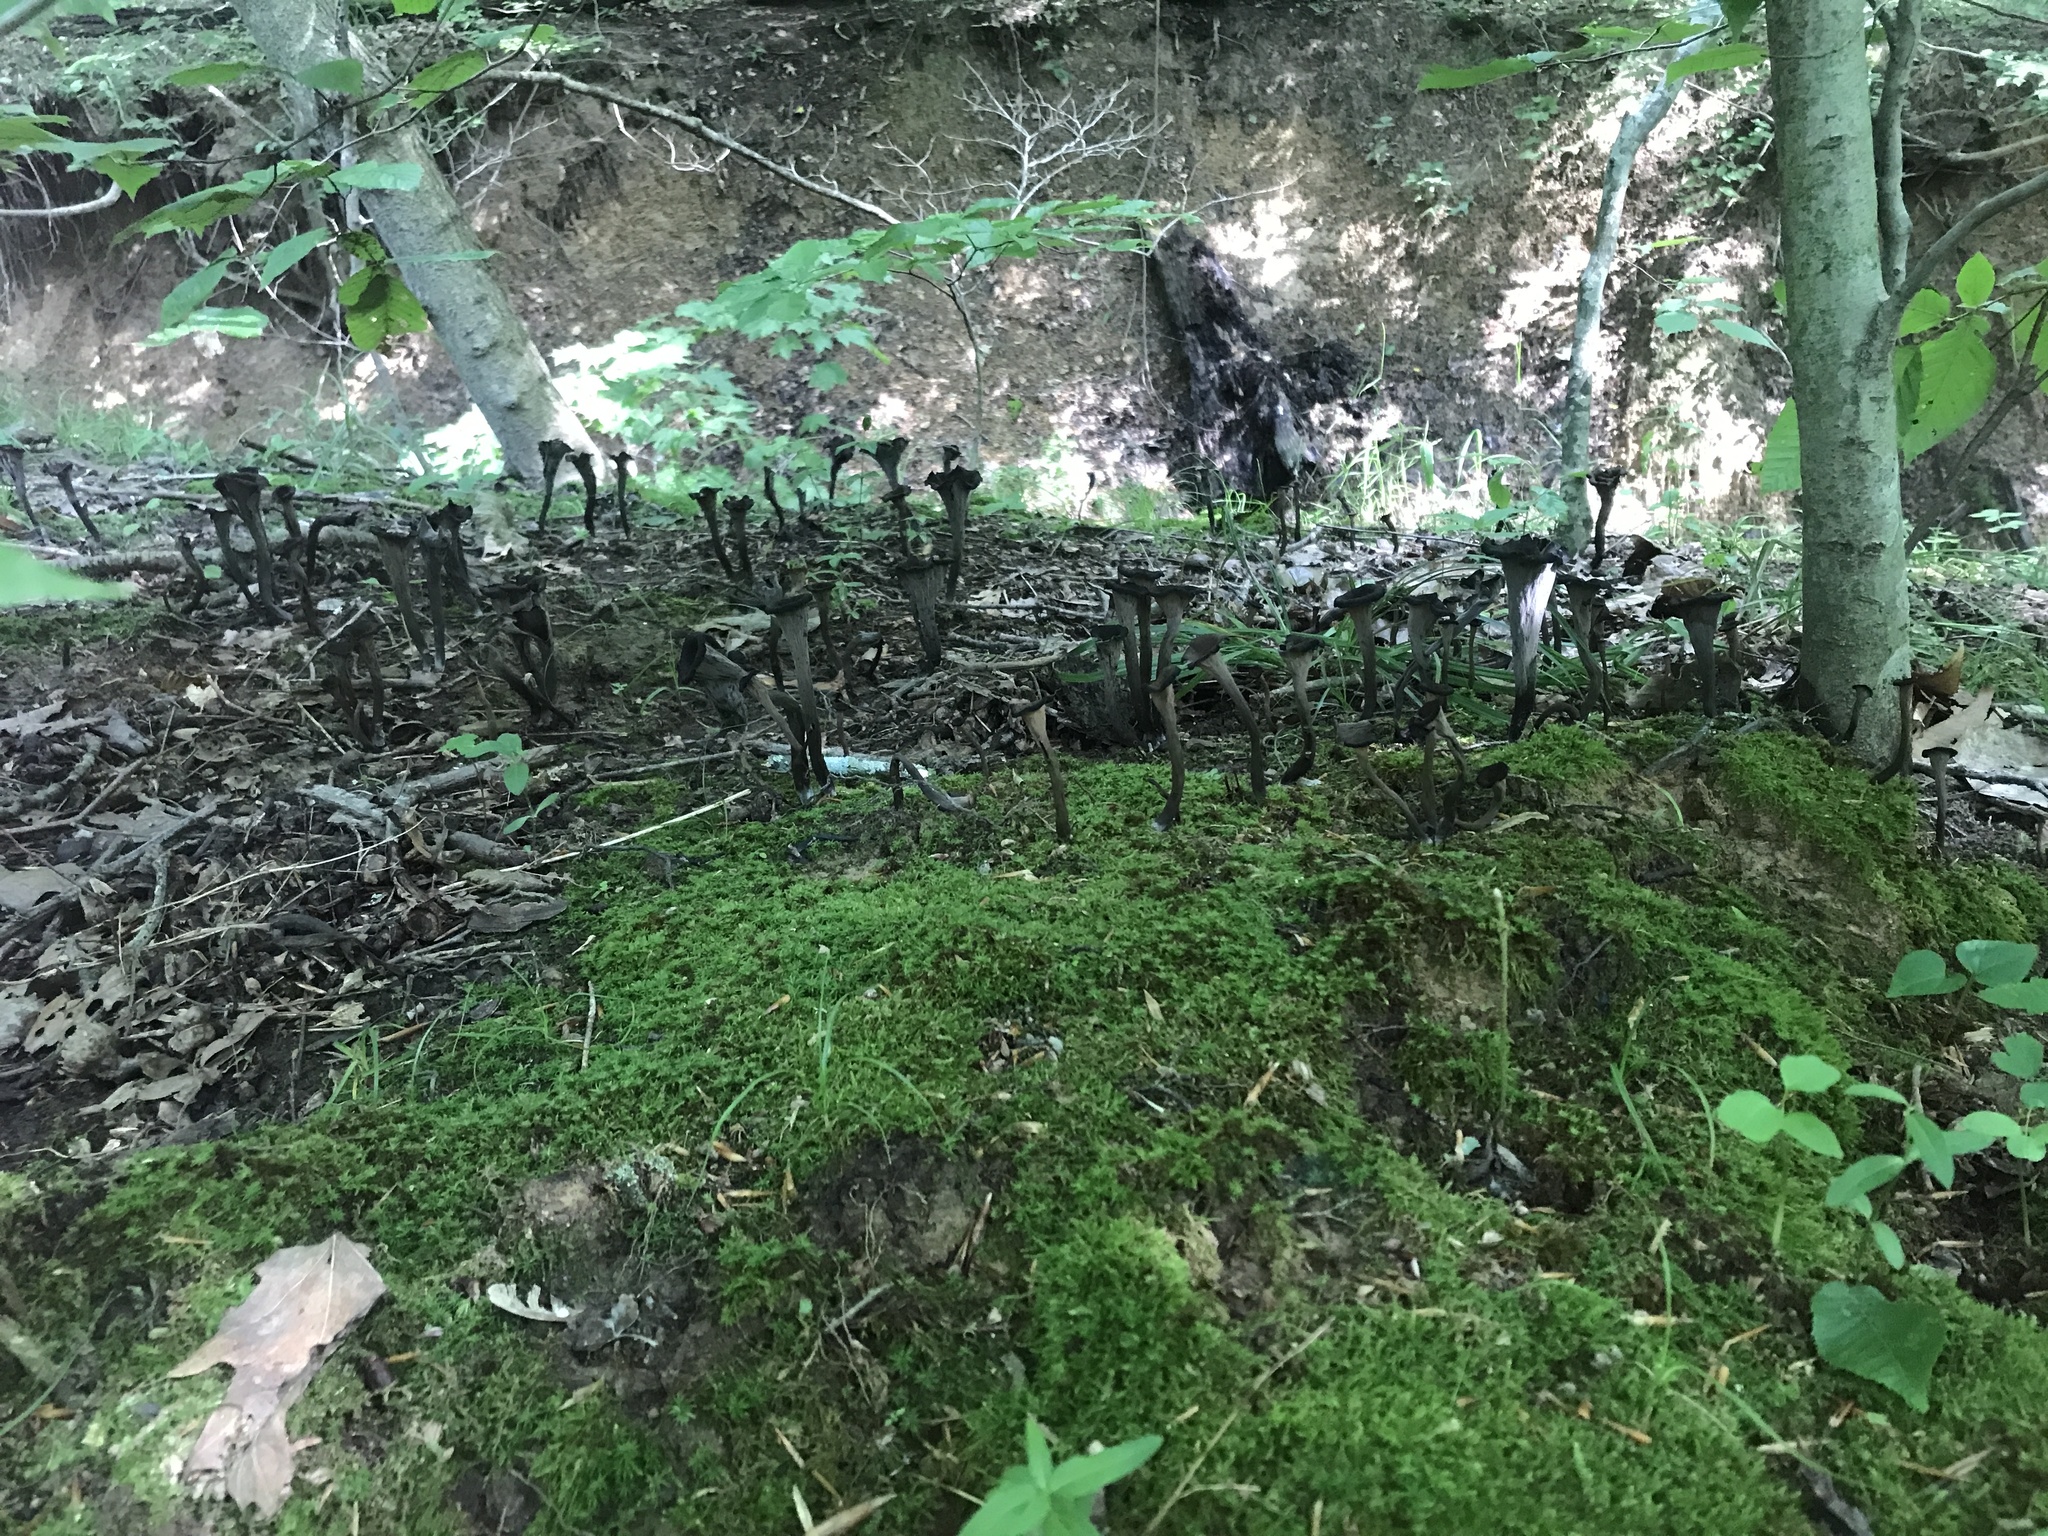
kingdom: Fungi
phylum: Basidiomycota
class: Agaricomycetes
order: Cantharellales
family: Hydnaceae
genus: Craterellus
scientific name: Craterellus cornucopioides
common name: Horn of plenty
